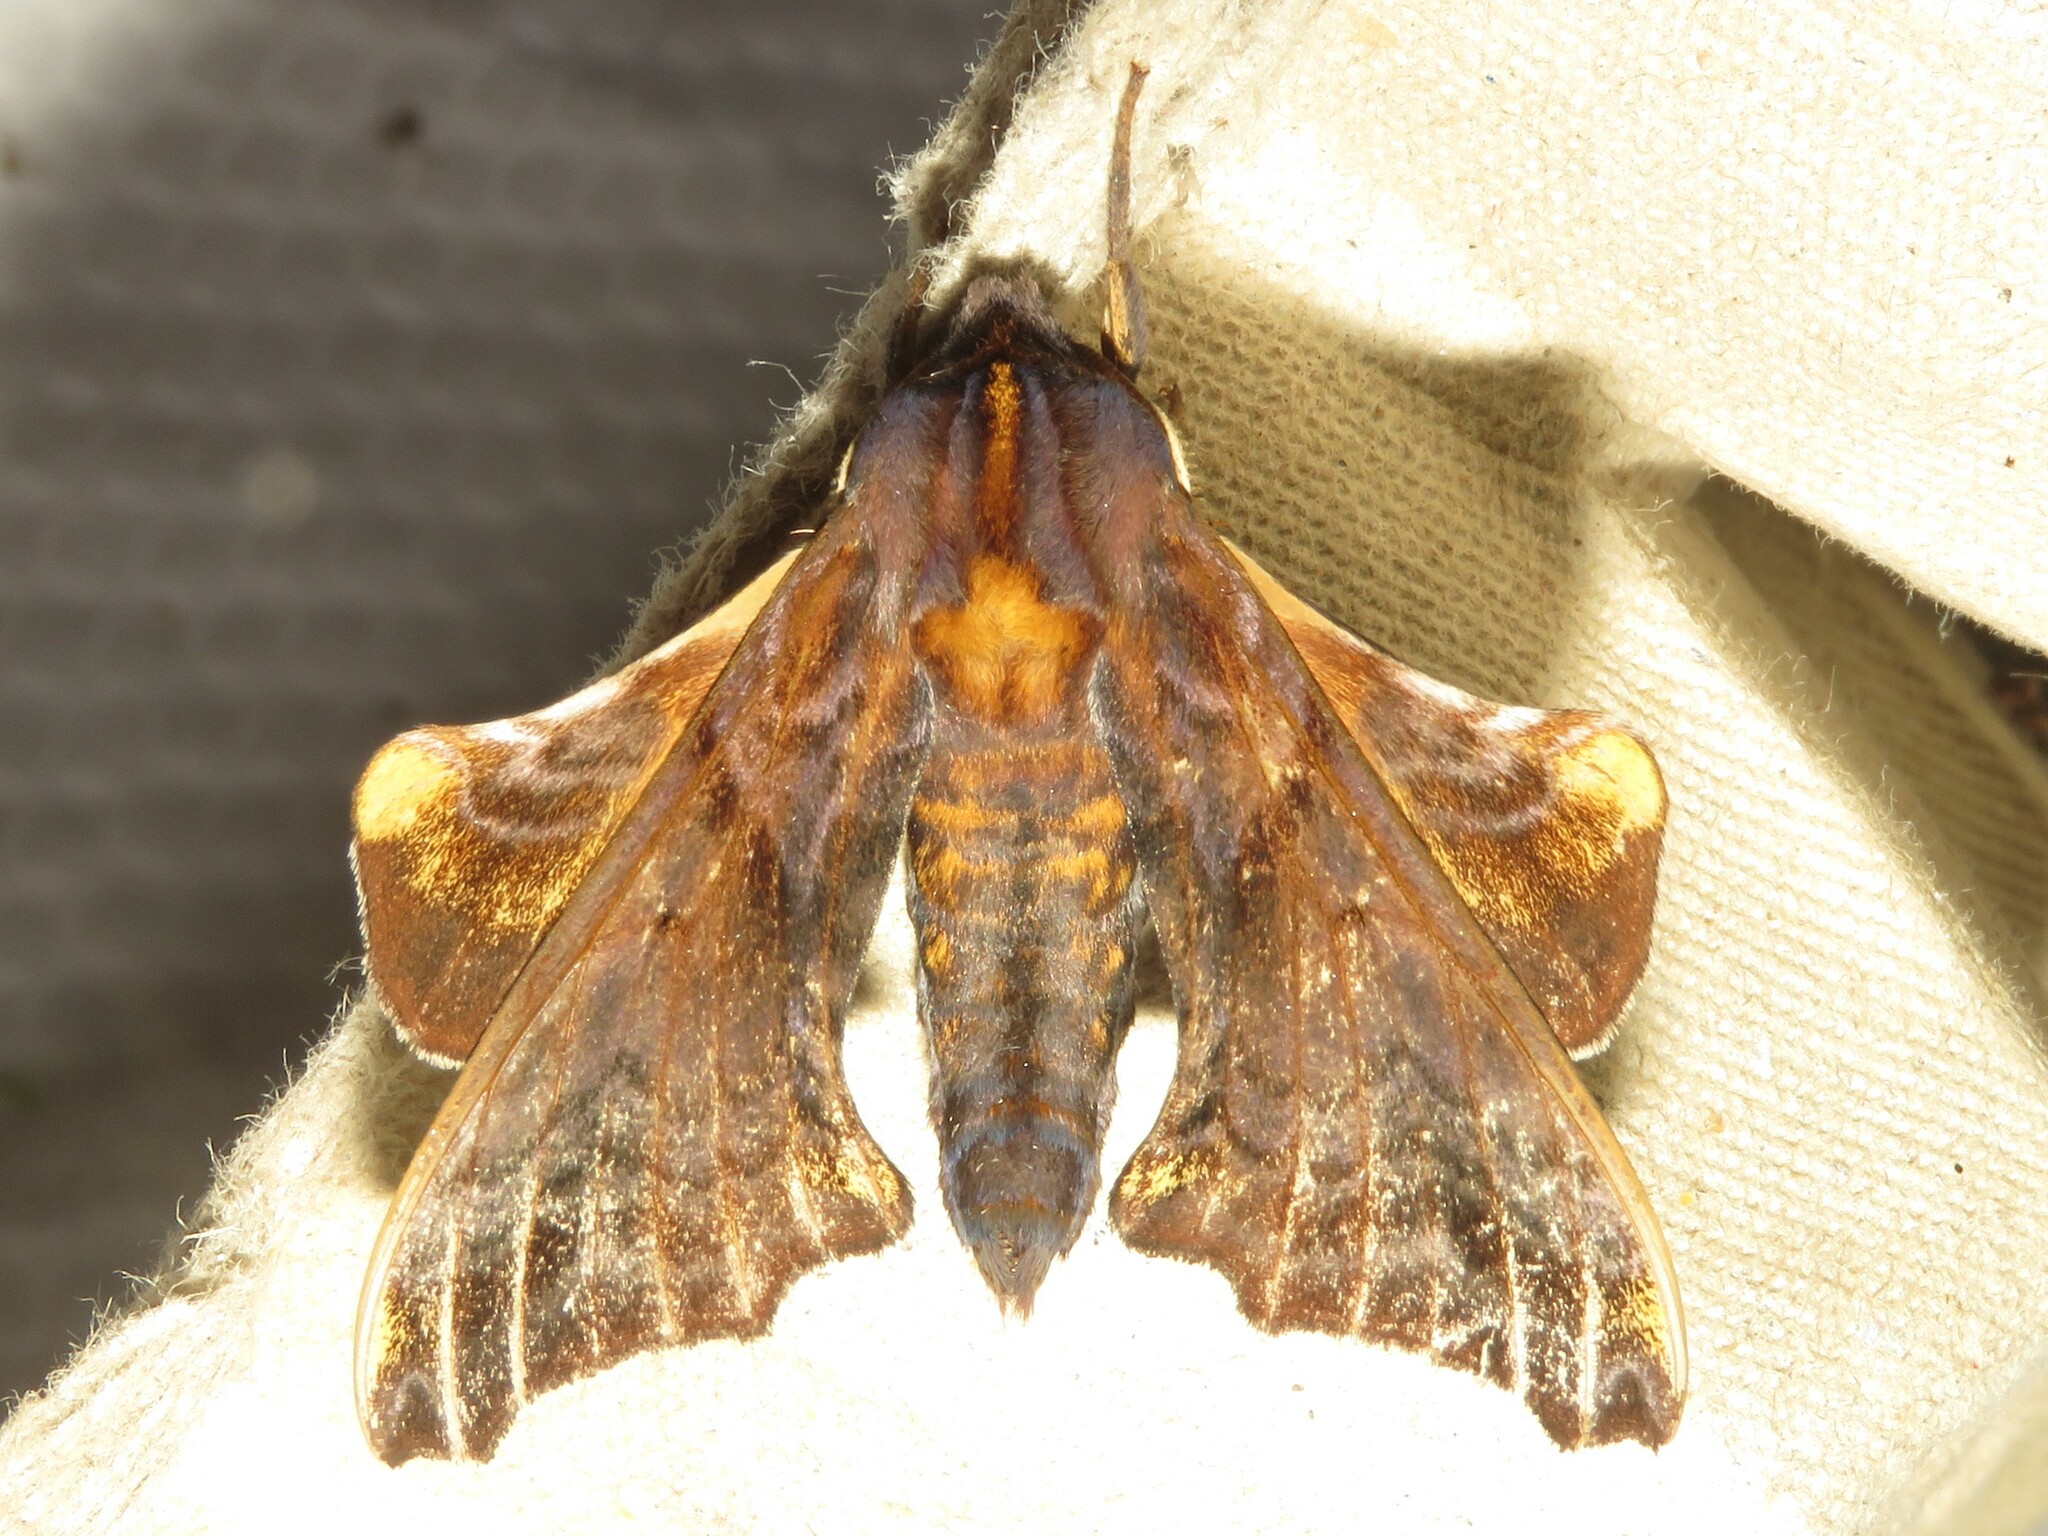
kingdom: Animalia
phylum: Arthropoda
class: Insecta
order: Lepidoptera
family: Sphingidae
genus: Paonias
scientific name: Paonias myops
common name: Small-eyed sphinx
